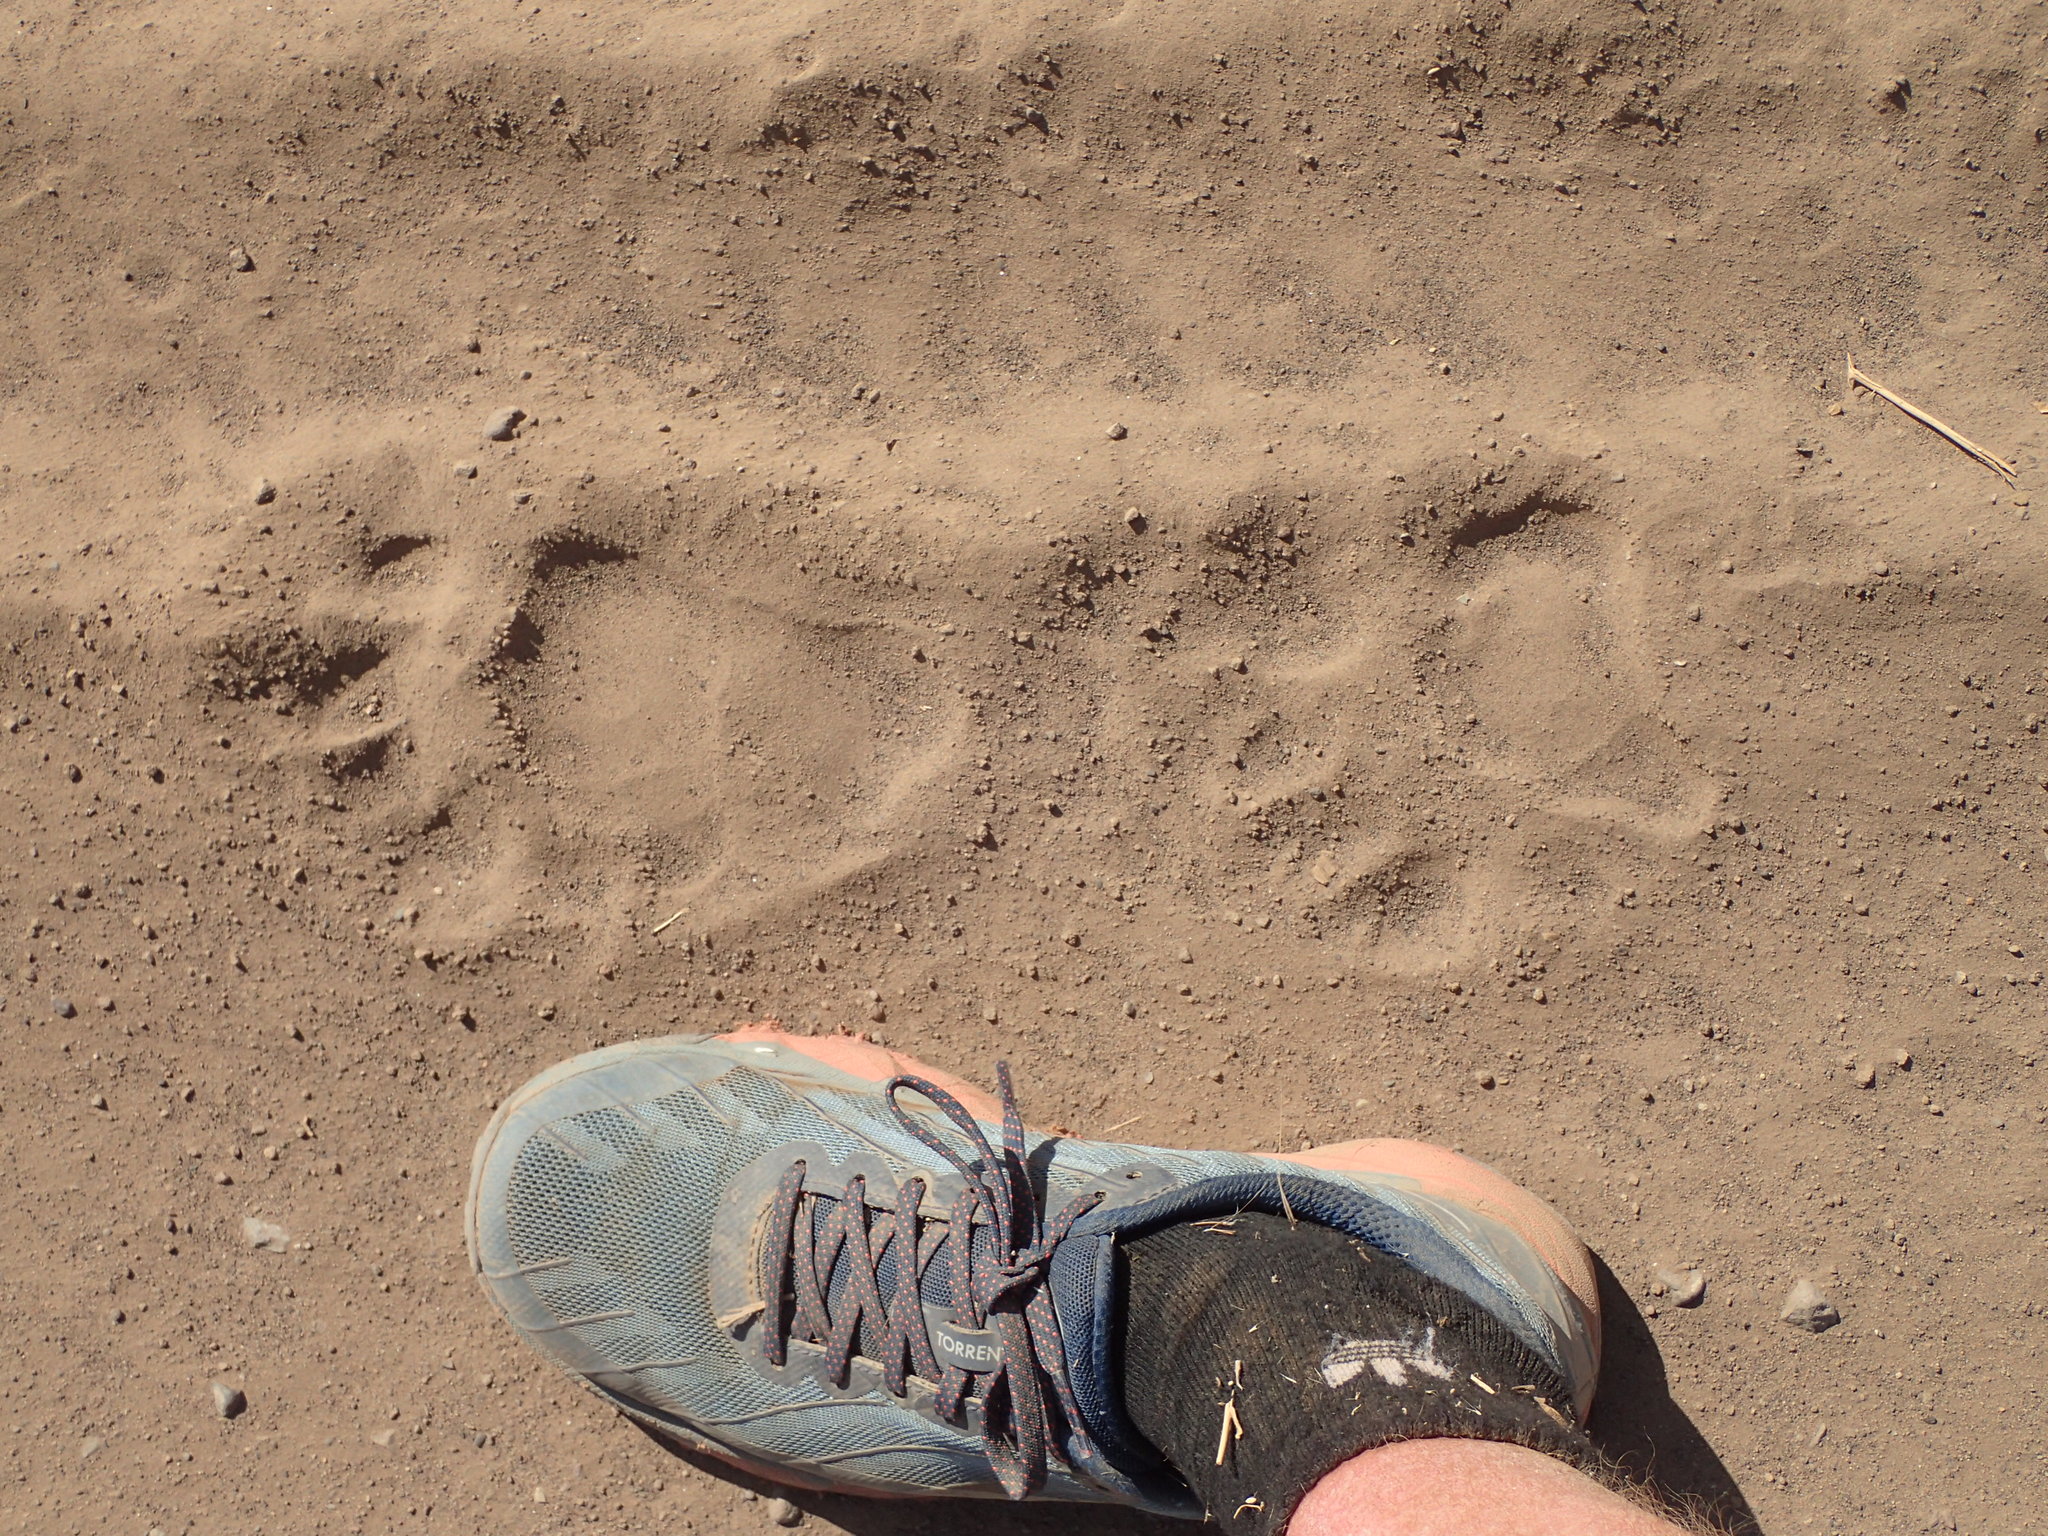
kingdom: Animalia
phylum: Chordata
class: Mammalia
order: Carnivora
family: Ursidae
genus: Ursus
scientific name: Ursus americanus
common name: American black bear
